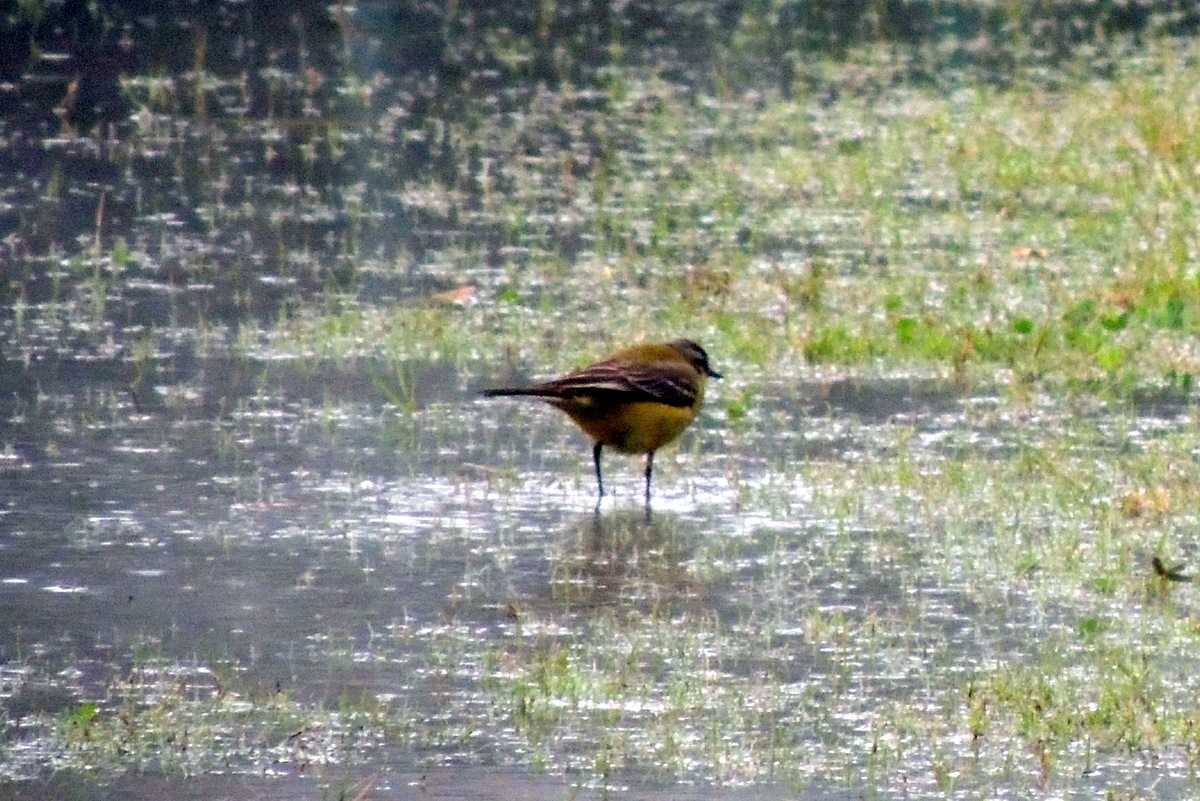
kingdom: Animalia
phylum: Chordata
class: Aves
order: Passeriformes
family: Motacillidae
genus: Motacilla
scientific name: Motacilla flava
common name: Western yellow wagtail
